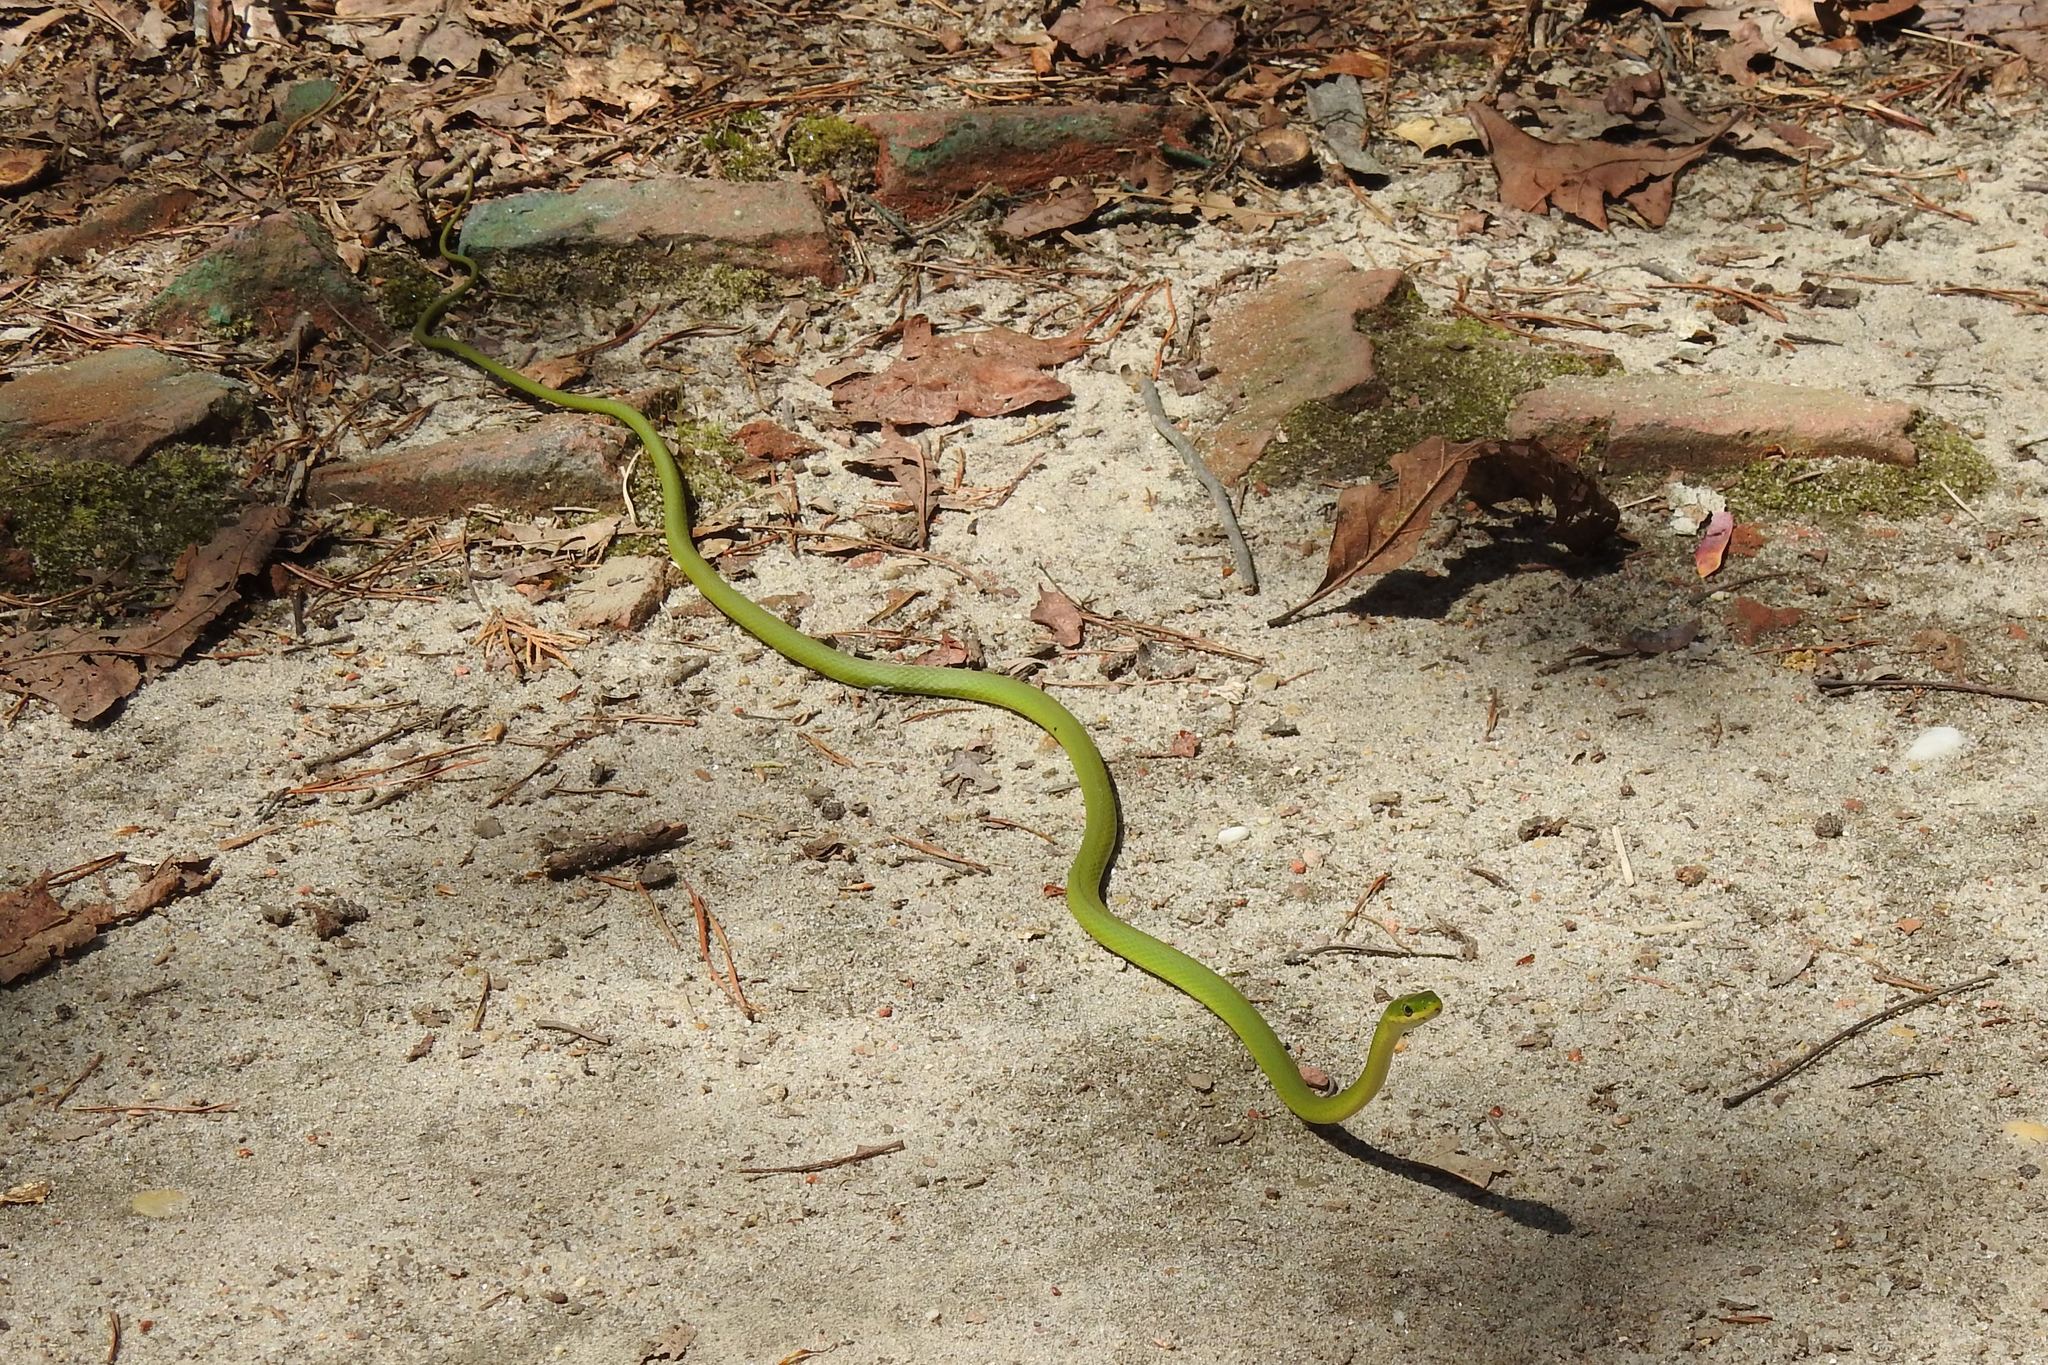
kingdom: Animalia
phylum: Chordata
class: Squamata
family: Colubridae
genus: Opheodrys
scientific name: Opheodrys aestivus
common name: Rough greensnake
